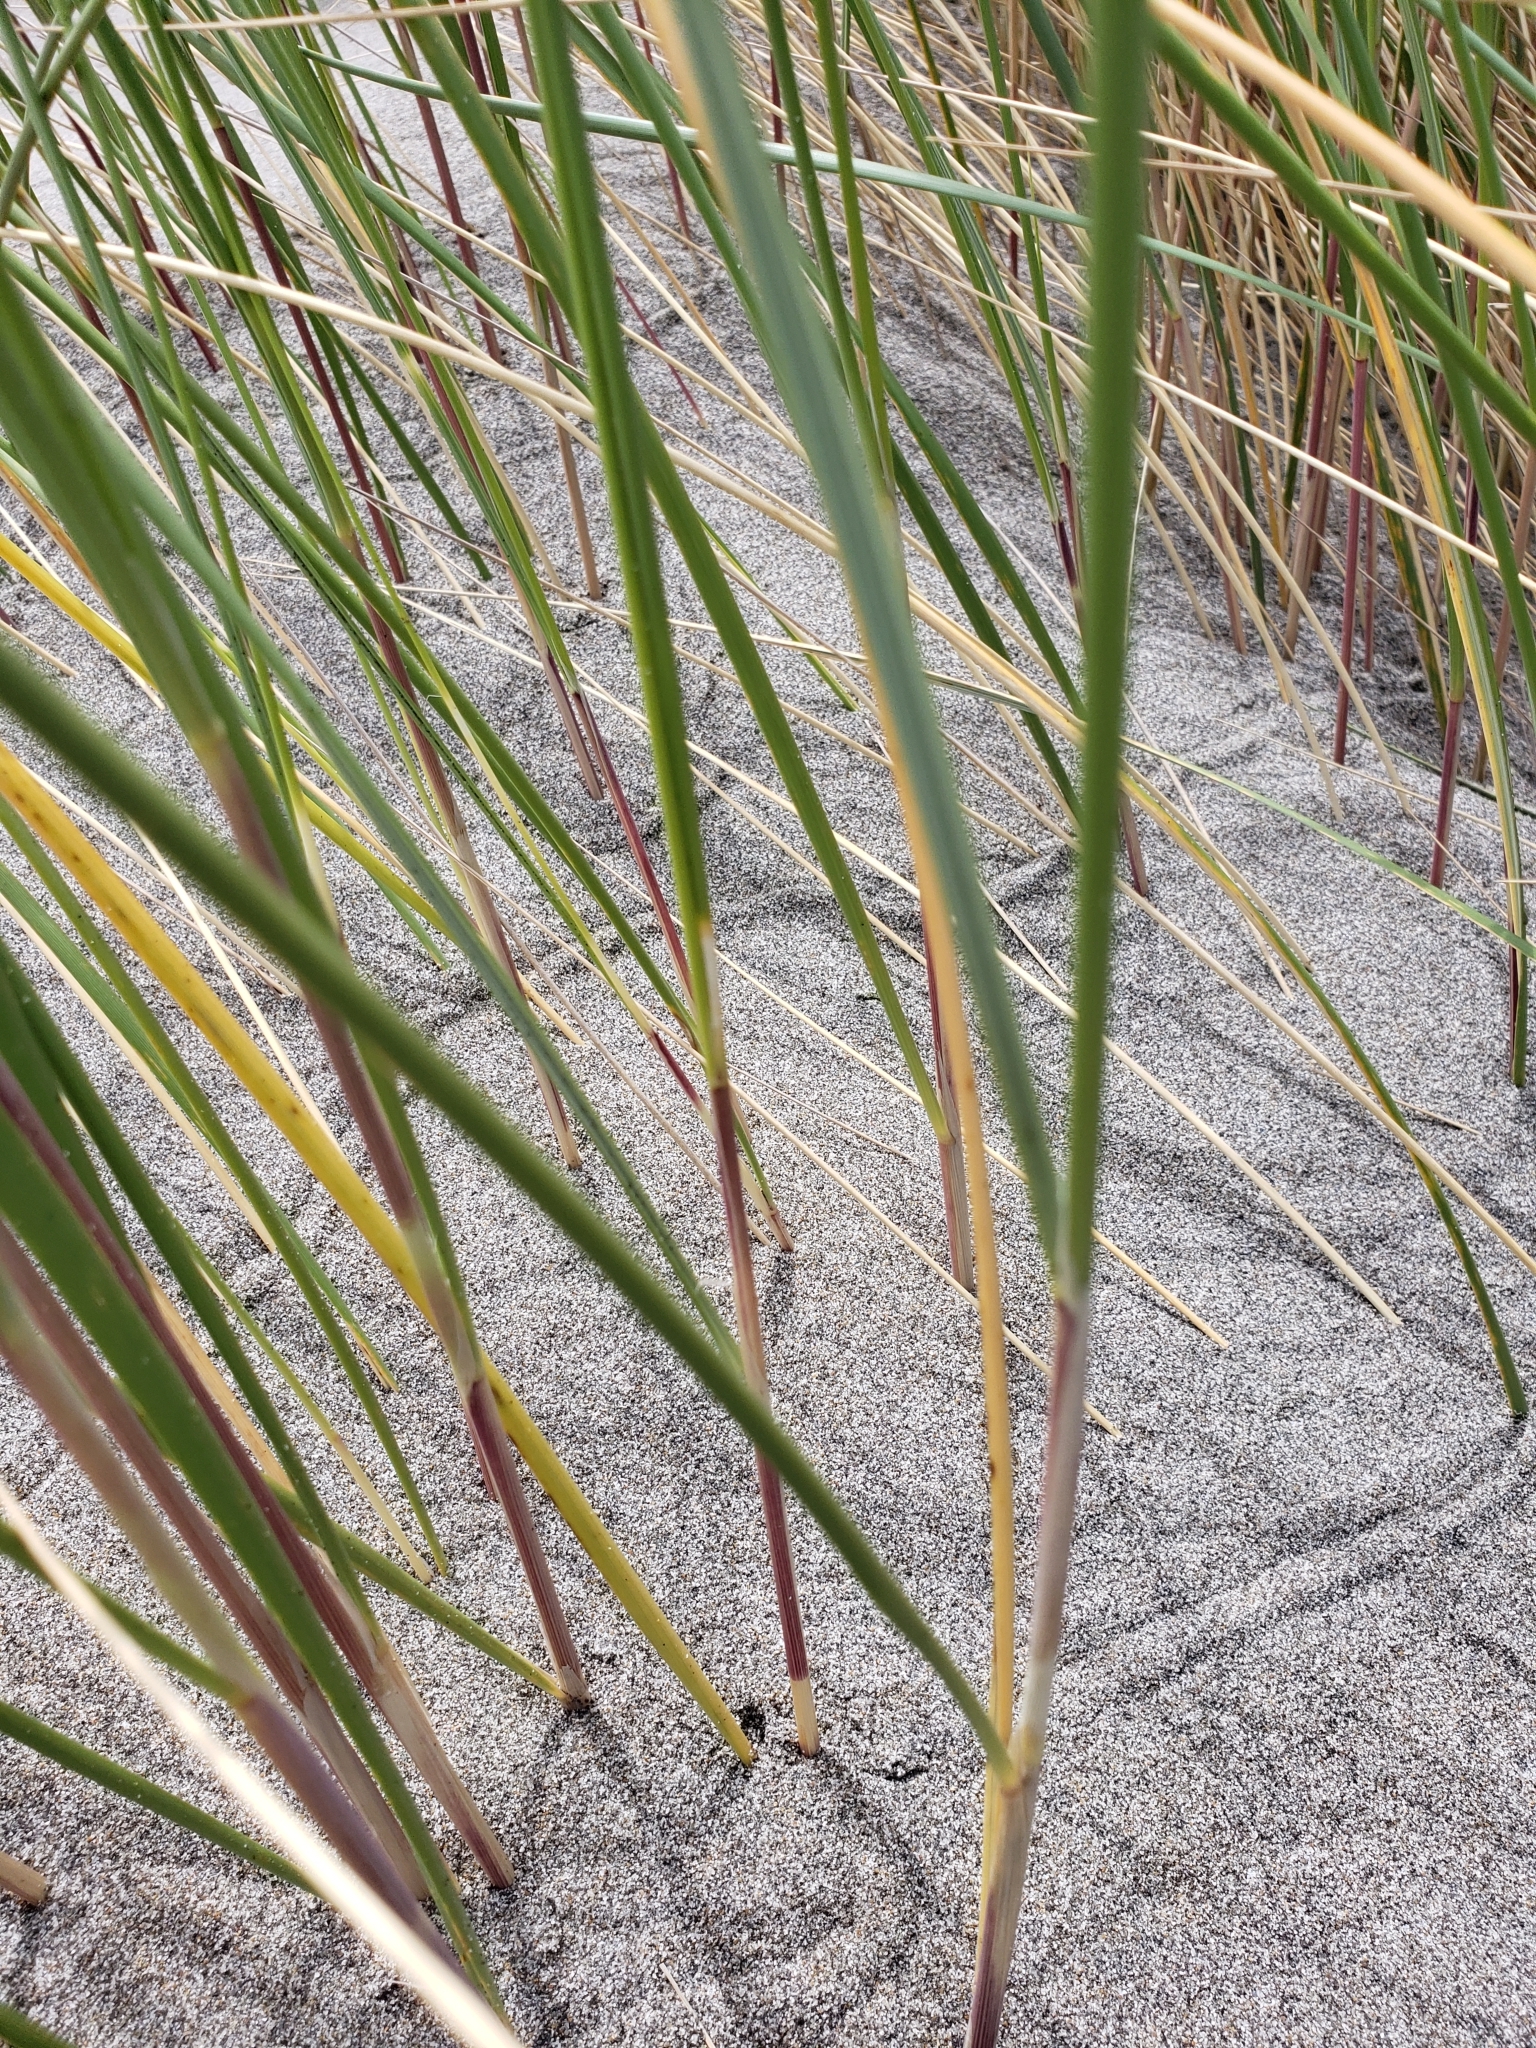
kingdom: Plantae
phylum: Tracheophyta
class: Liliopsida
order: Poales
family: Poaceae
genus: Calamagrostis
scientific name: Calamagrostis arenaria
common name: European beachgrass
